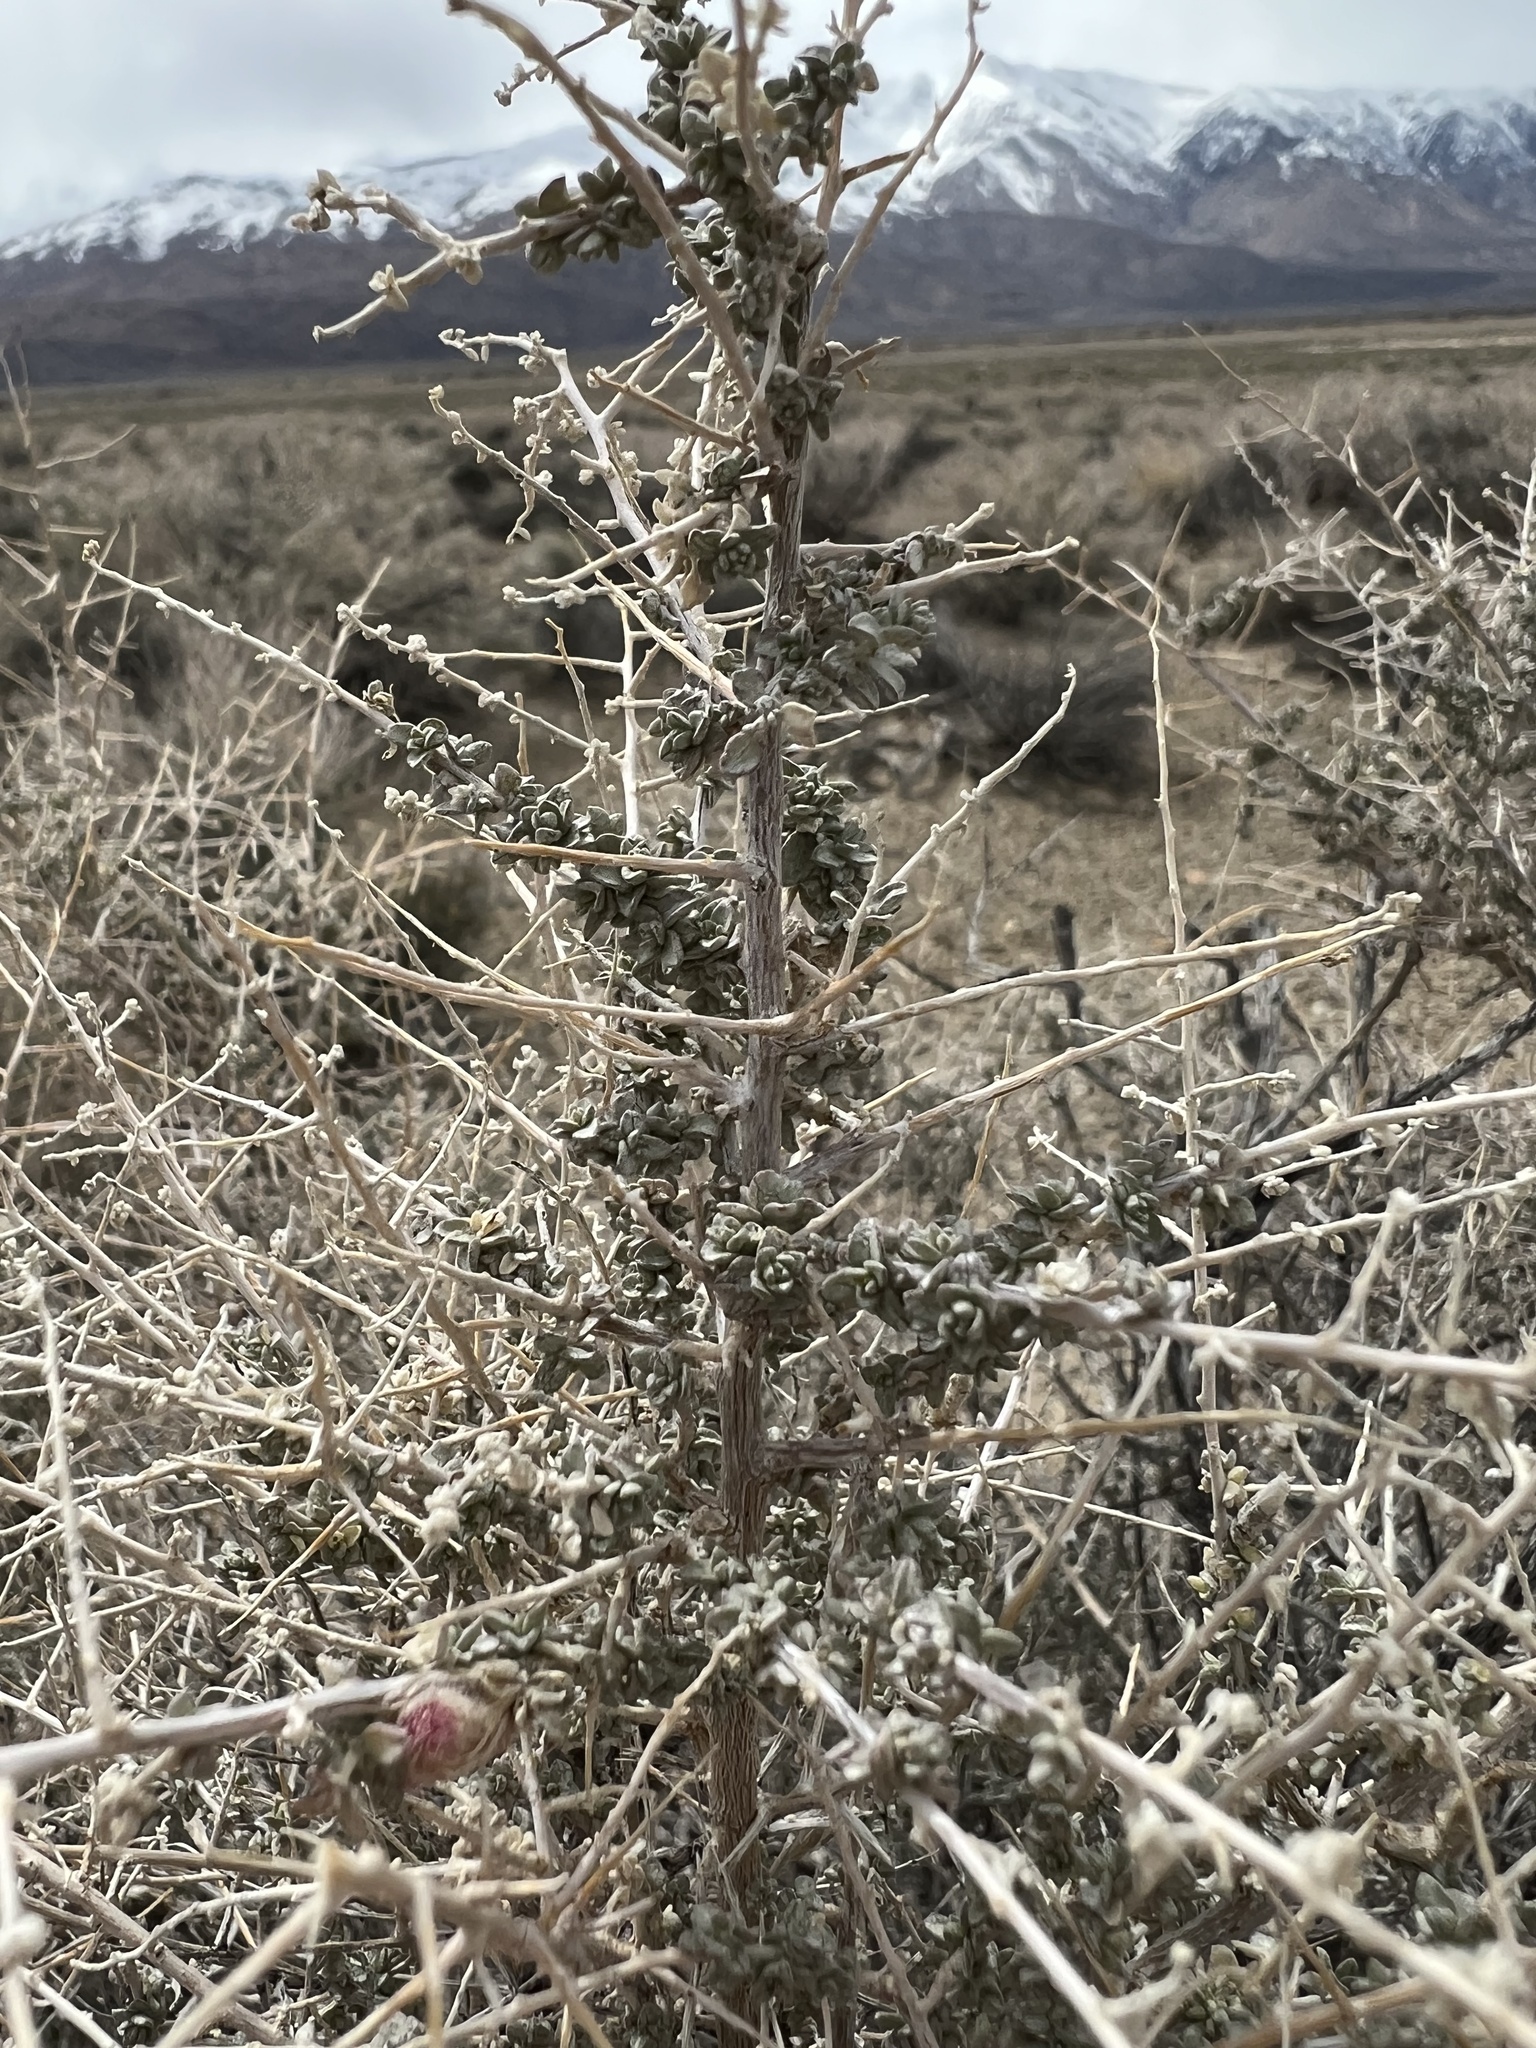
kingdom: Plantae
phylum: Tracheophyta
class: Magnoliopsida
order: Caryophyllales
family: Amaranthaceae
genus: Atriplex
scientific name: Atriplex polycarpa
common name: Desert saltbush
